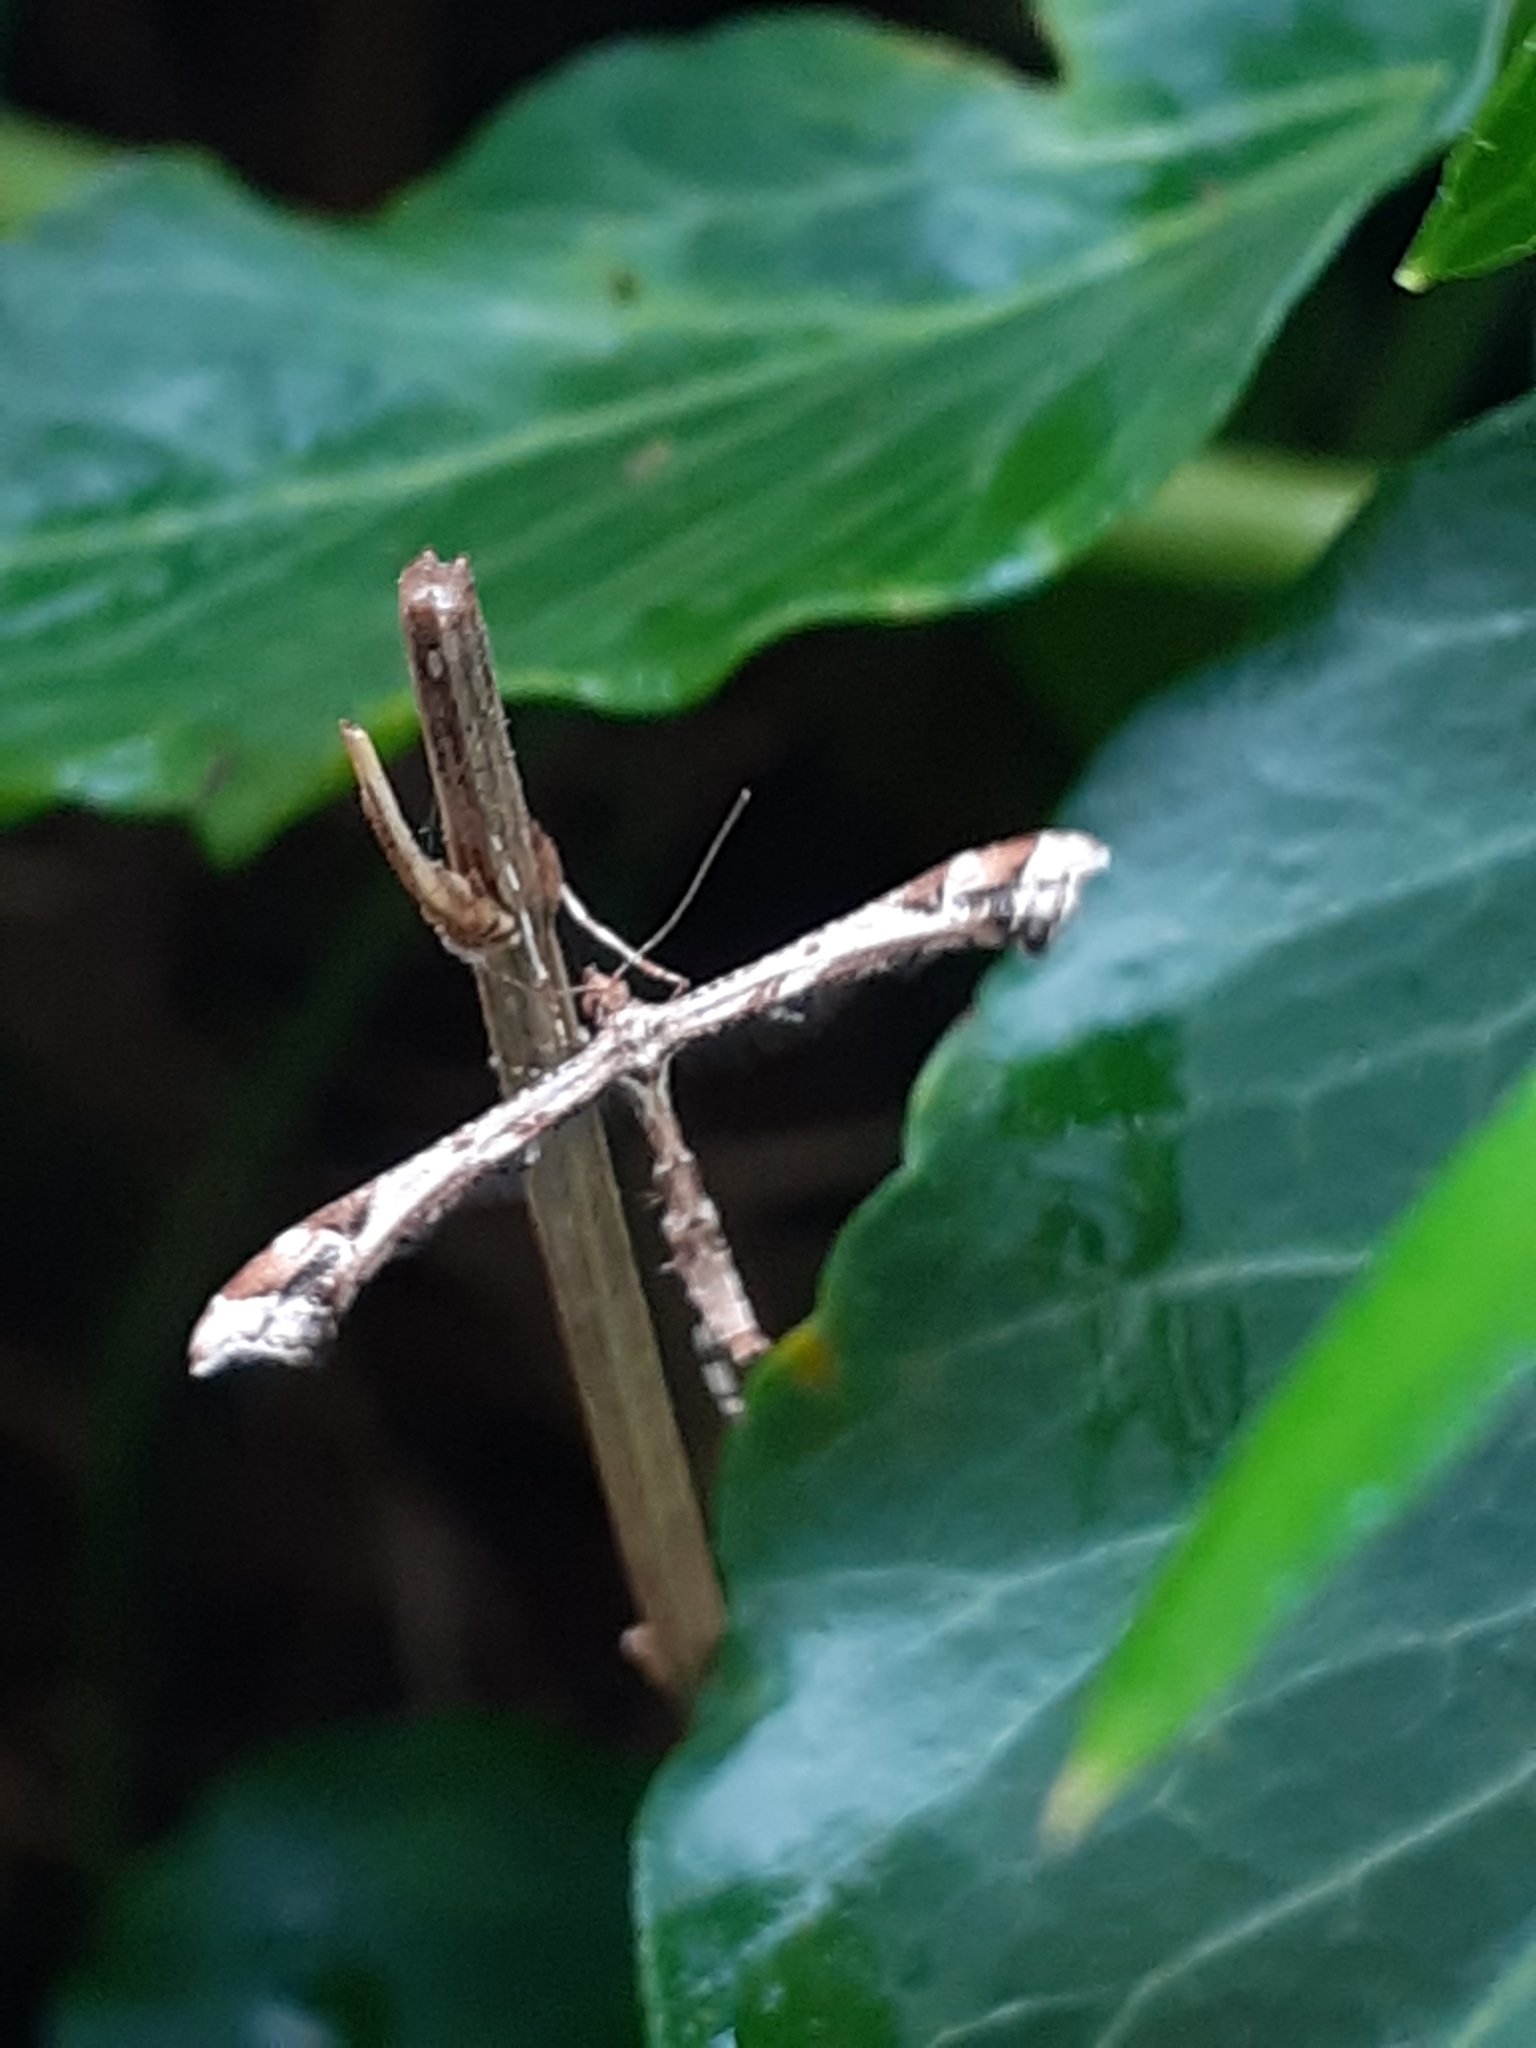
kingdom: Animalia
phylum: Arthropoda
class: Insecta
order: Lepidoptera
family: Pterophoridae
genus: Amblyptilia
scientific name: Amblyptilia acanthadactyla
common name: Beautiful plume
